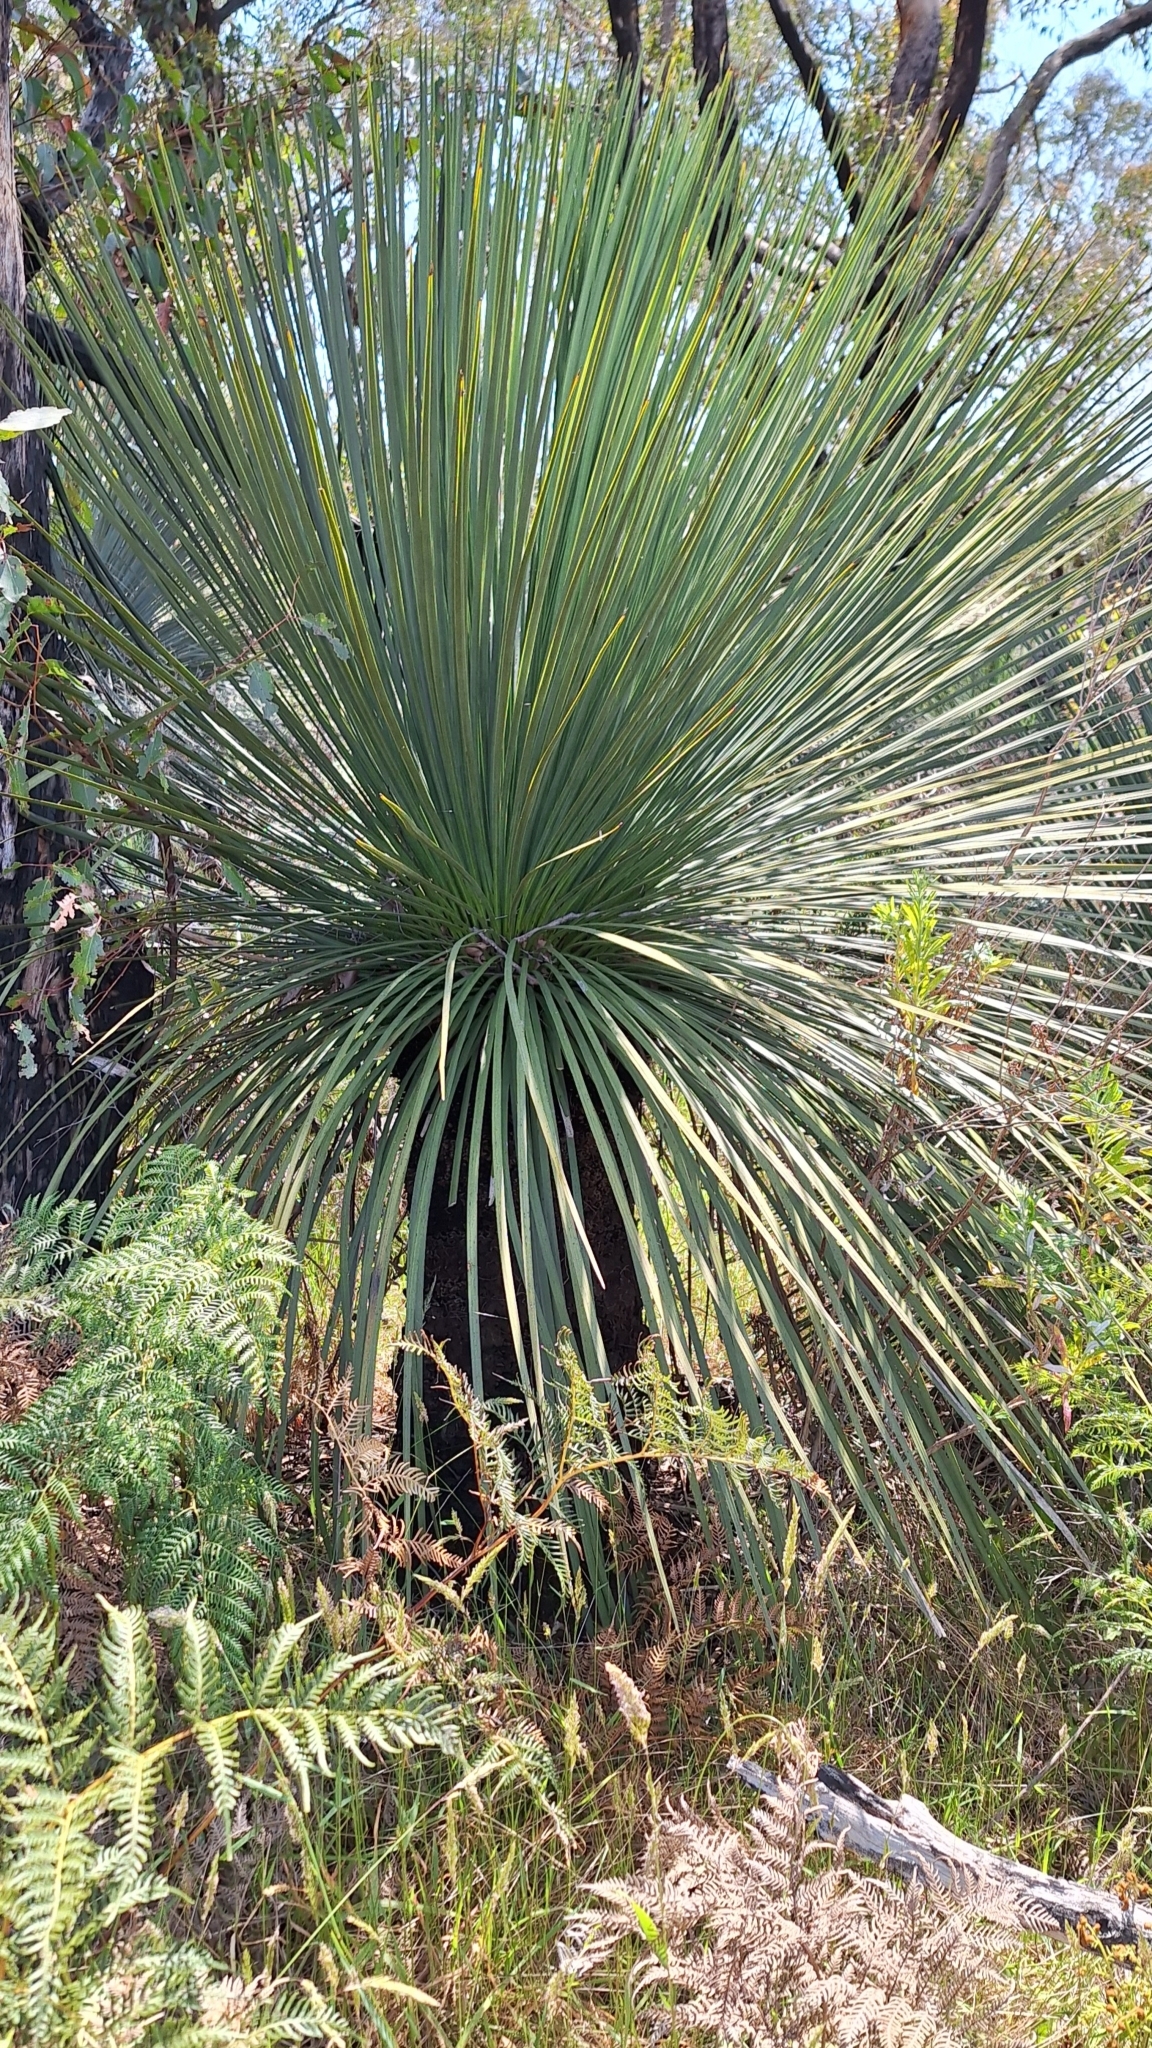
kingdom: Plantae
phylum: Tracheophyta
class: Liliopsida
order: Asparagales
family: Asphodelaceae
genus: Xanthorrhoea
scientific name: Xanthorrhoea semiplana
